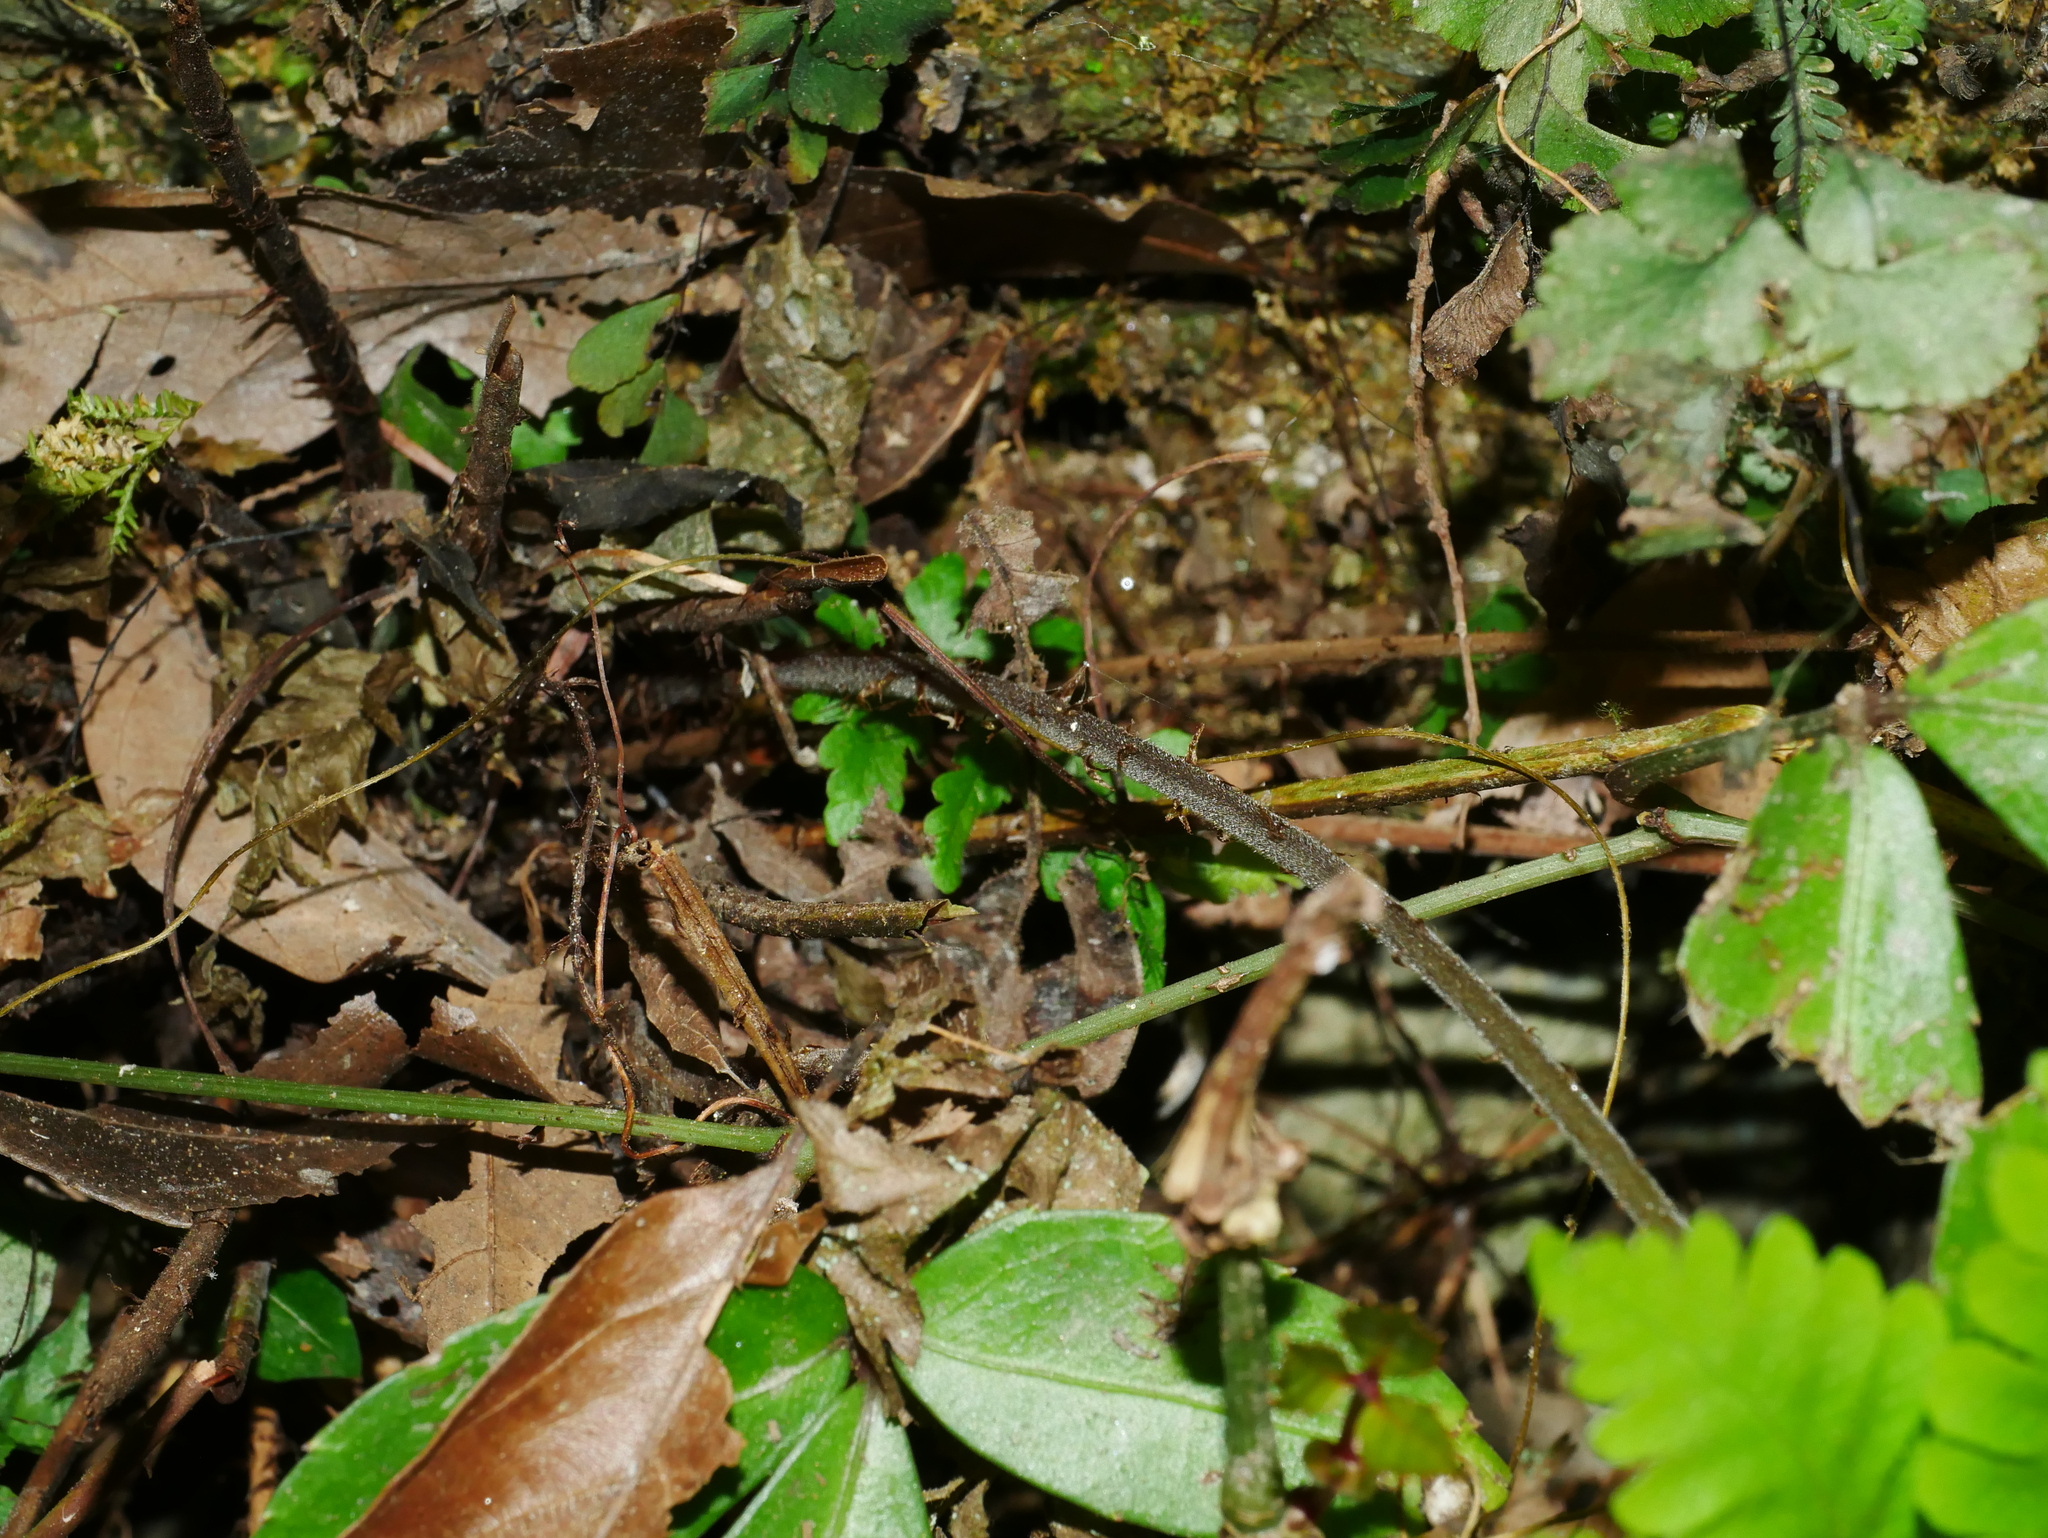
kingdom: Plantae
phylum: Tracheophyta
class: Polypodiopsida
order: Polypodiales
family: Tectariaceae
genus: Tectaria
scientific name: Tectaria dissecta
